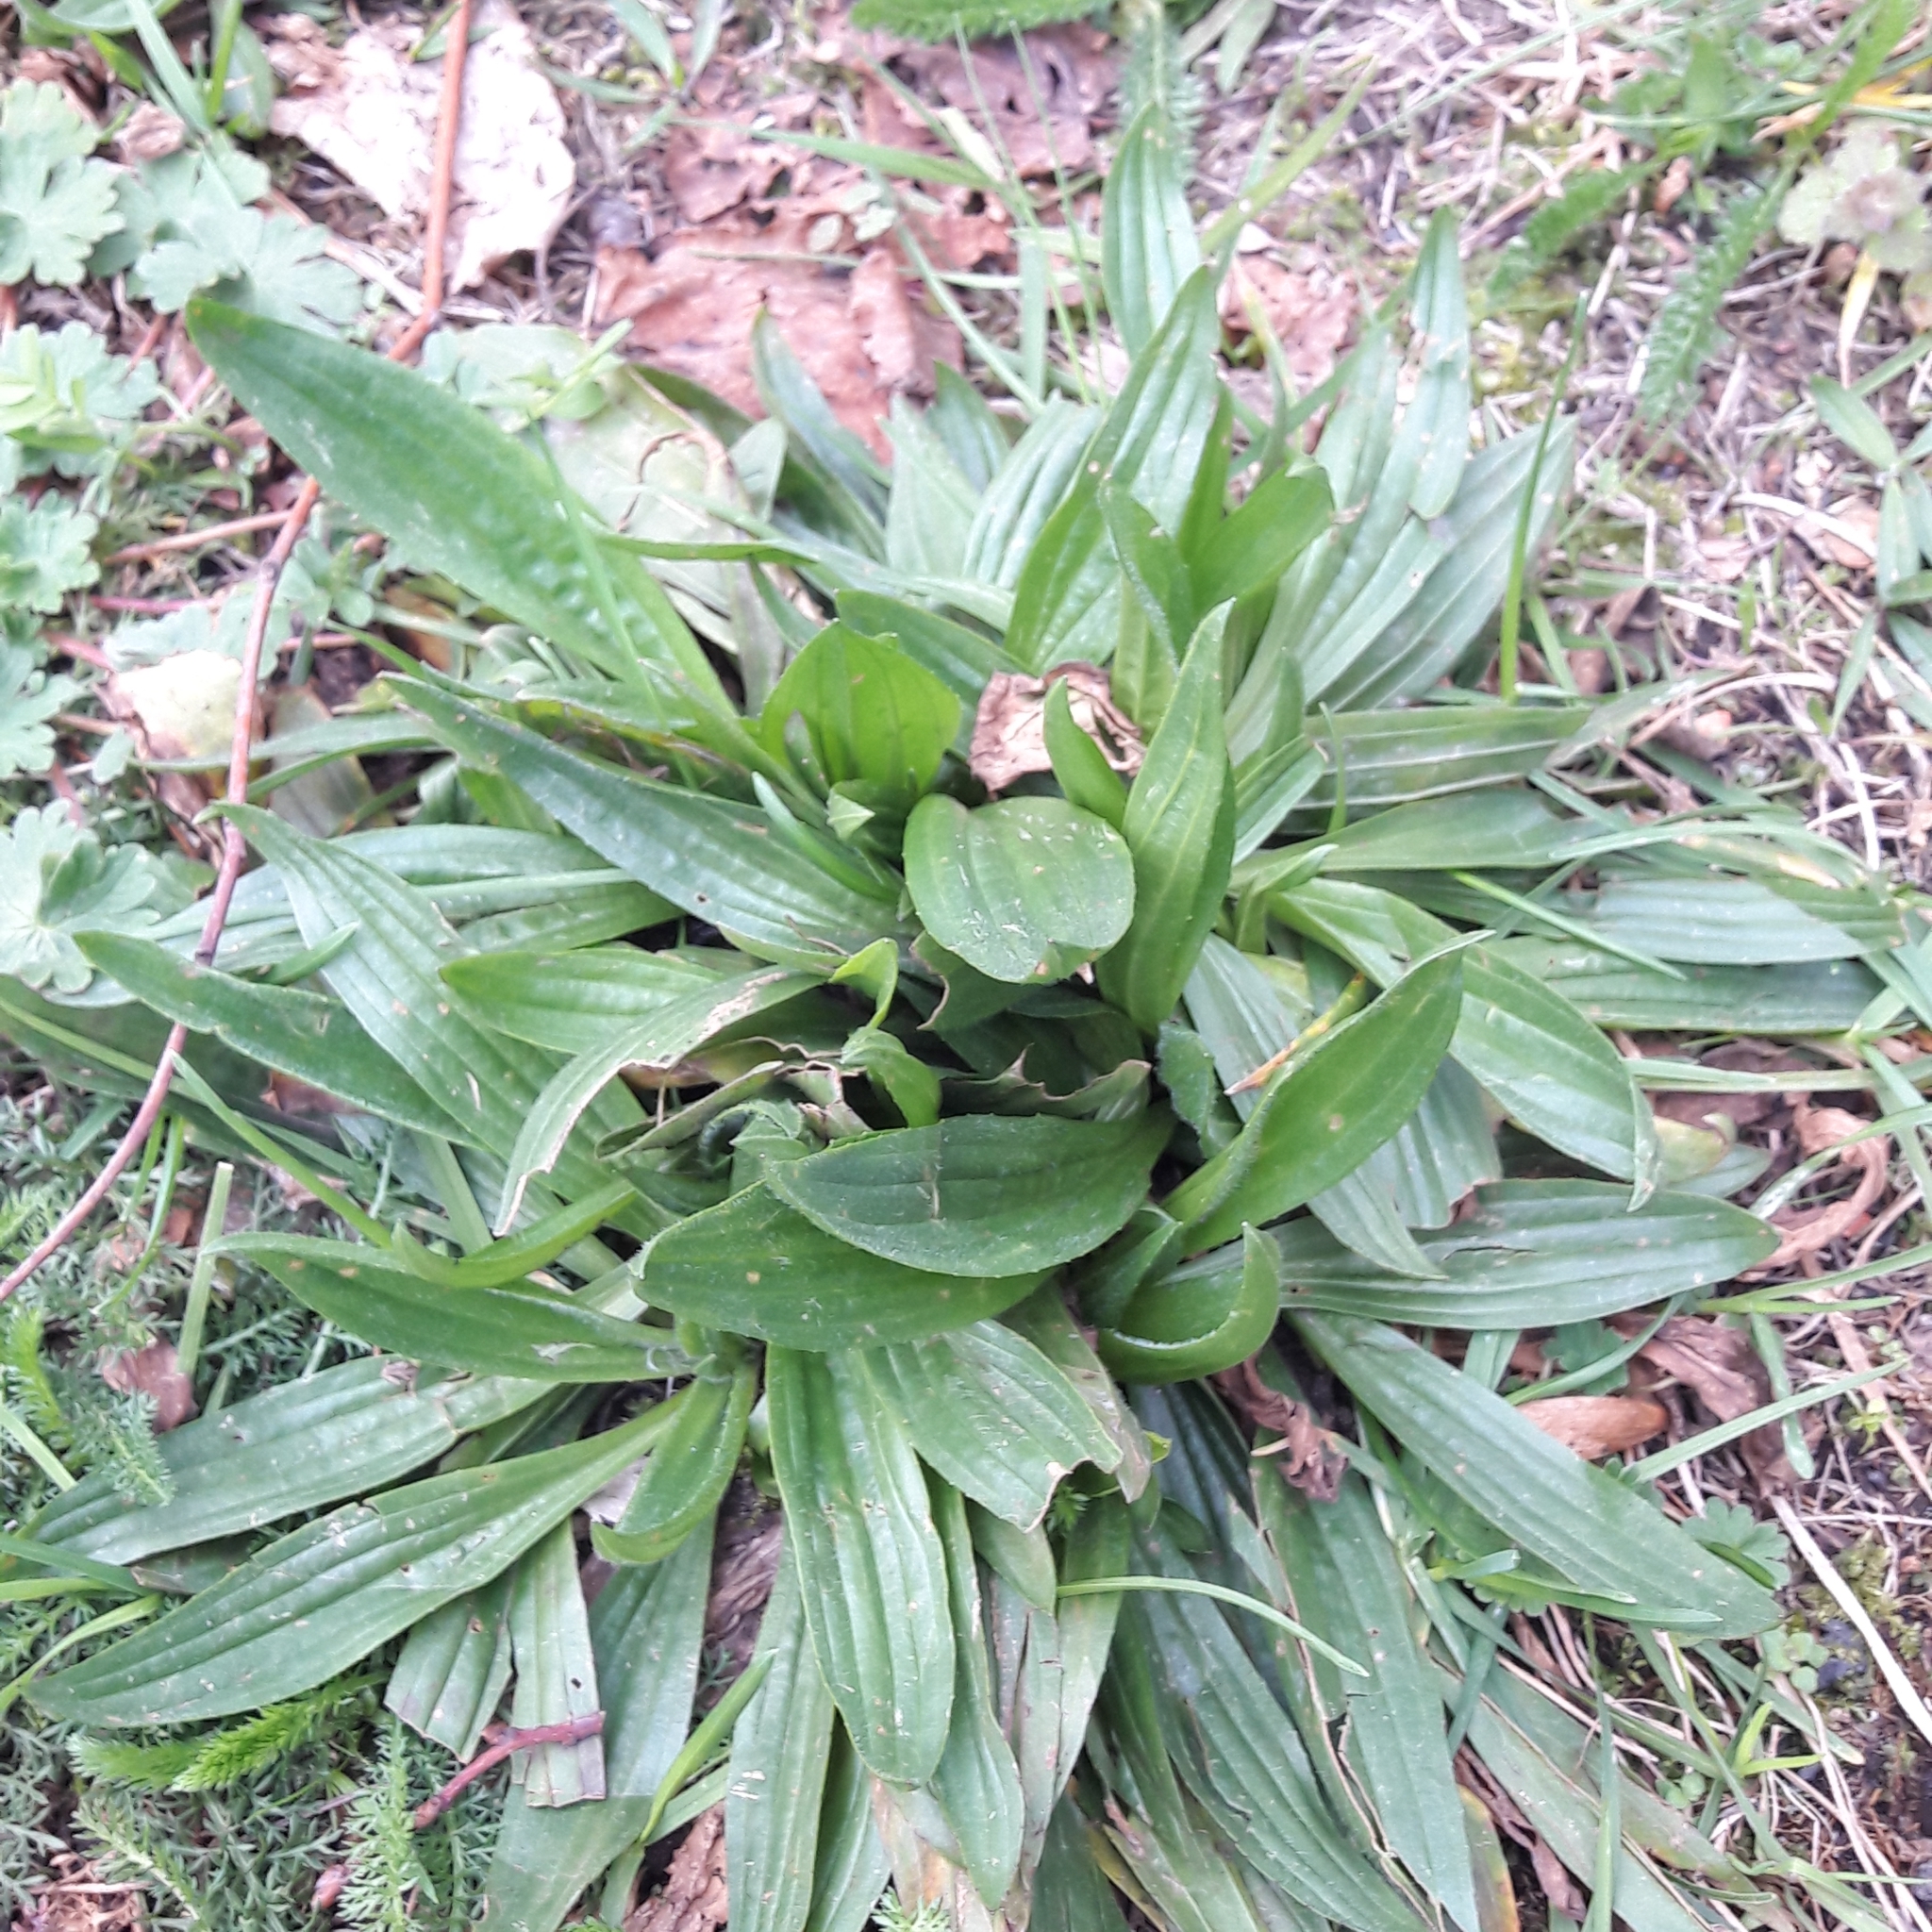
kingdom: Plantae
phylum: Tracheophyta
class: Magnoliopsida
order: Lamiales
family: Plantaginaceae
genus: Plantago
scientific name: Plantago lanceolata
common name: Ribwort plantain
